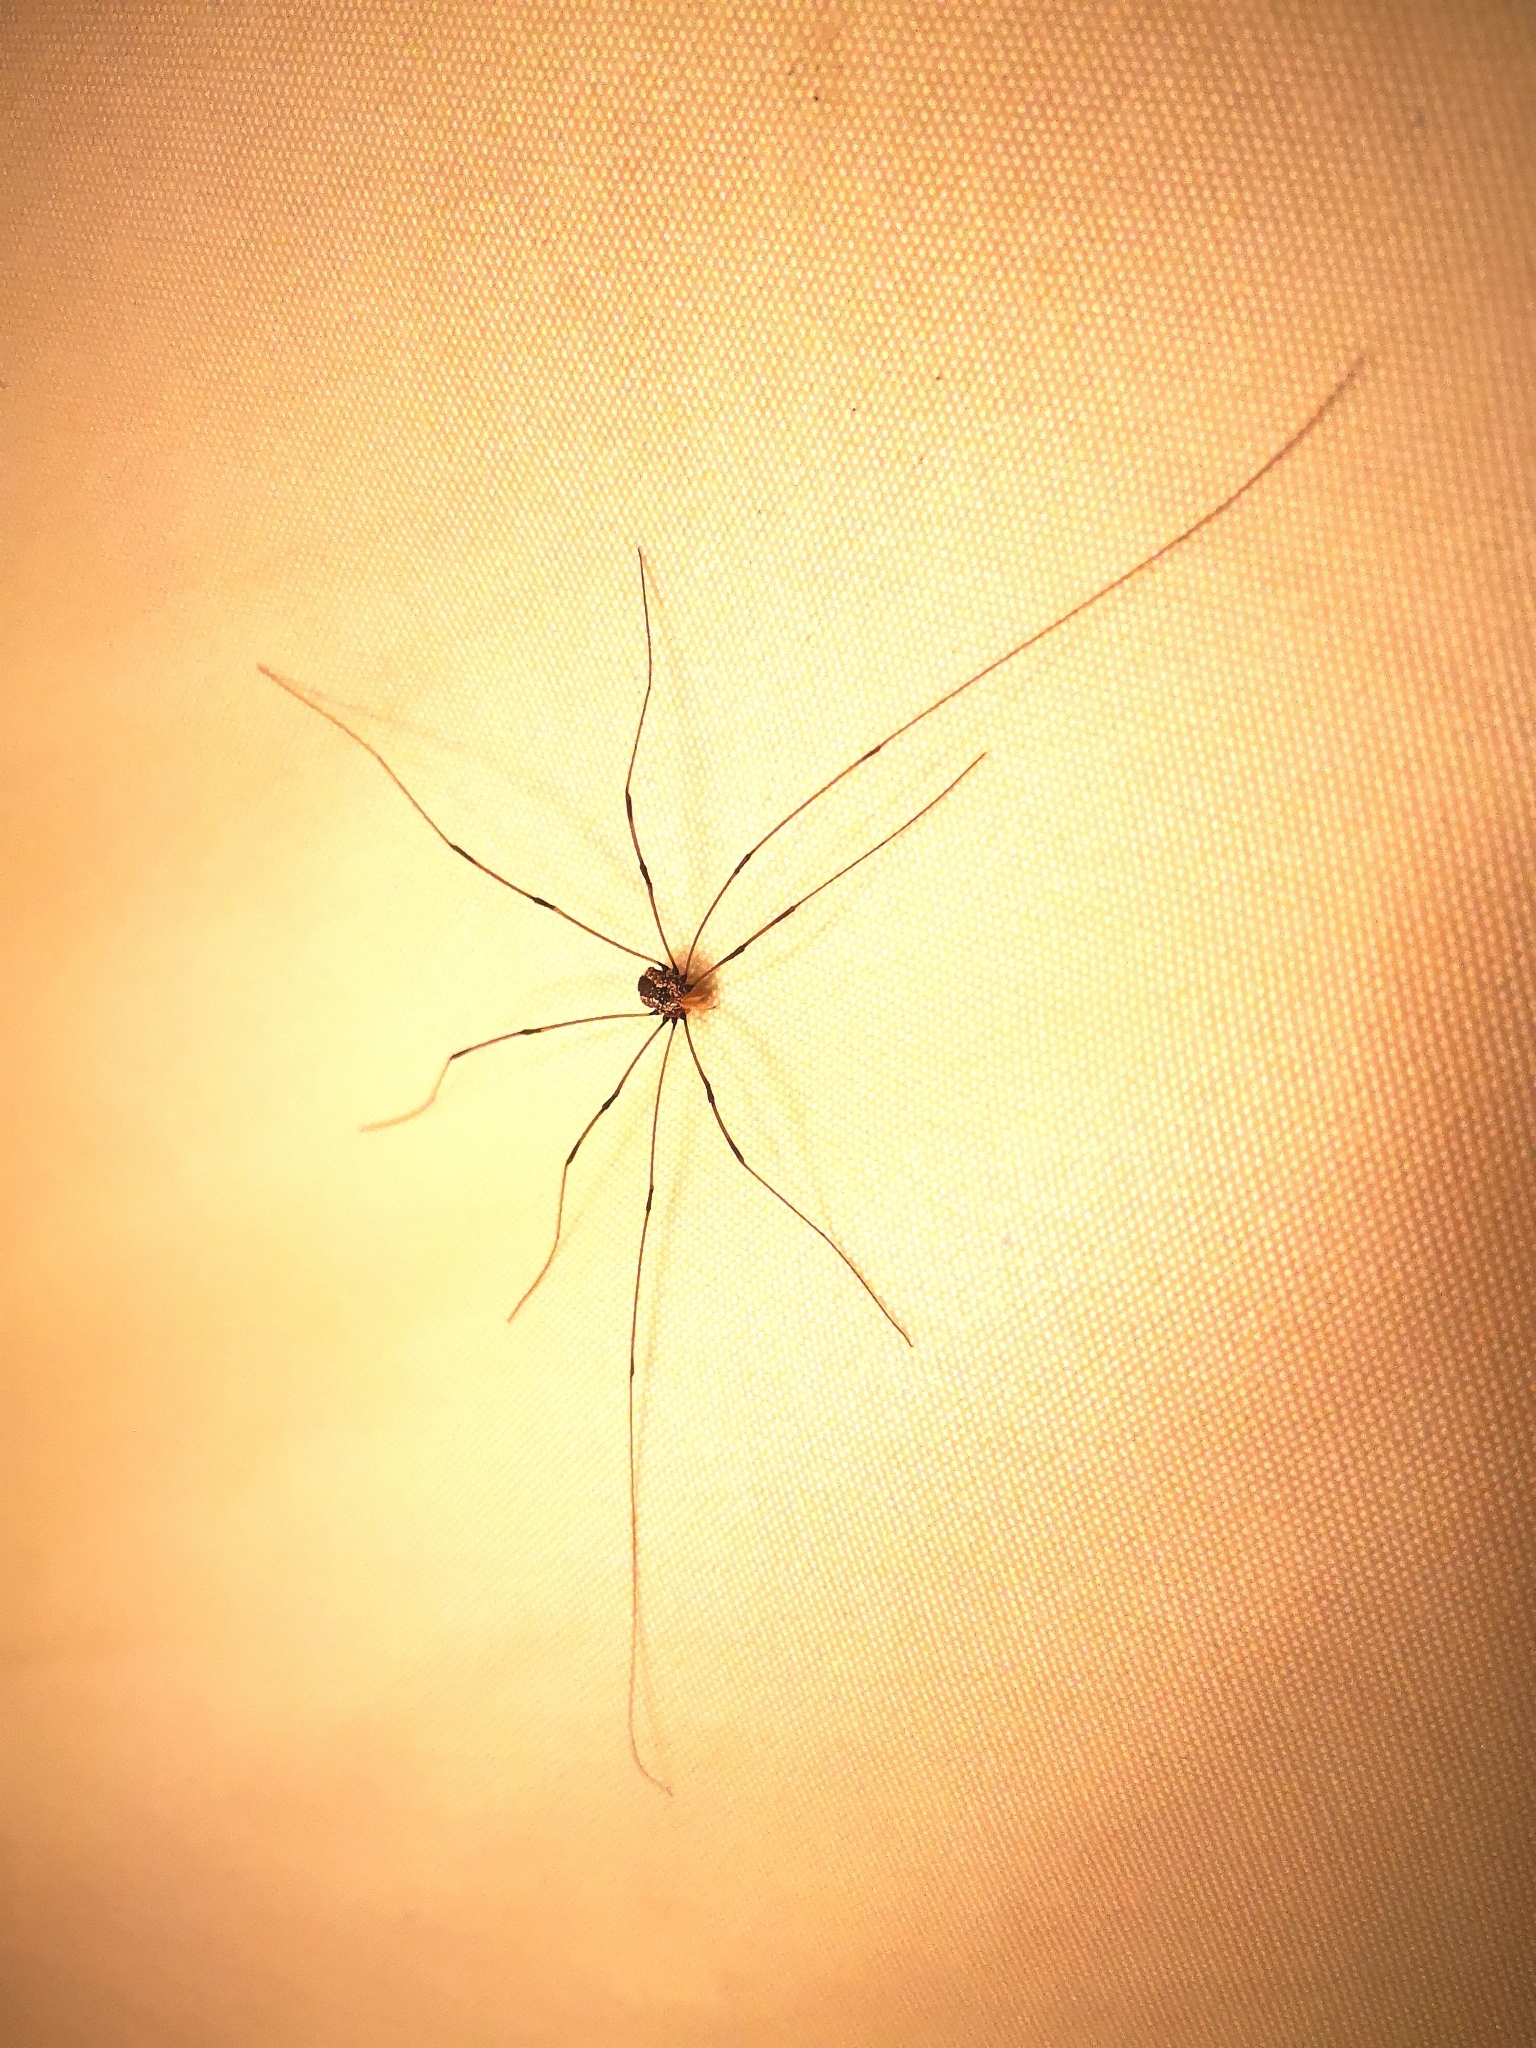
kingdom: Animalia
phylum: Arthropoda
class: Arachnida
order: Opiliones
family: Sclerosomatidae
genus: Leiobunum
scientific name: Leiobunum vittatum
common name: Eastern harvestman
